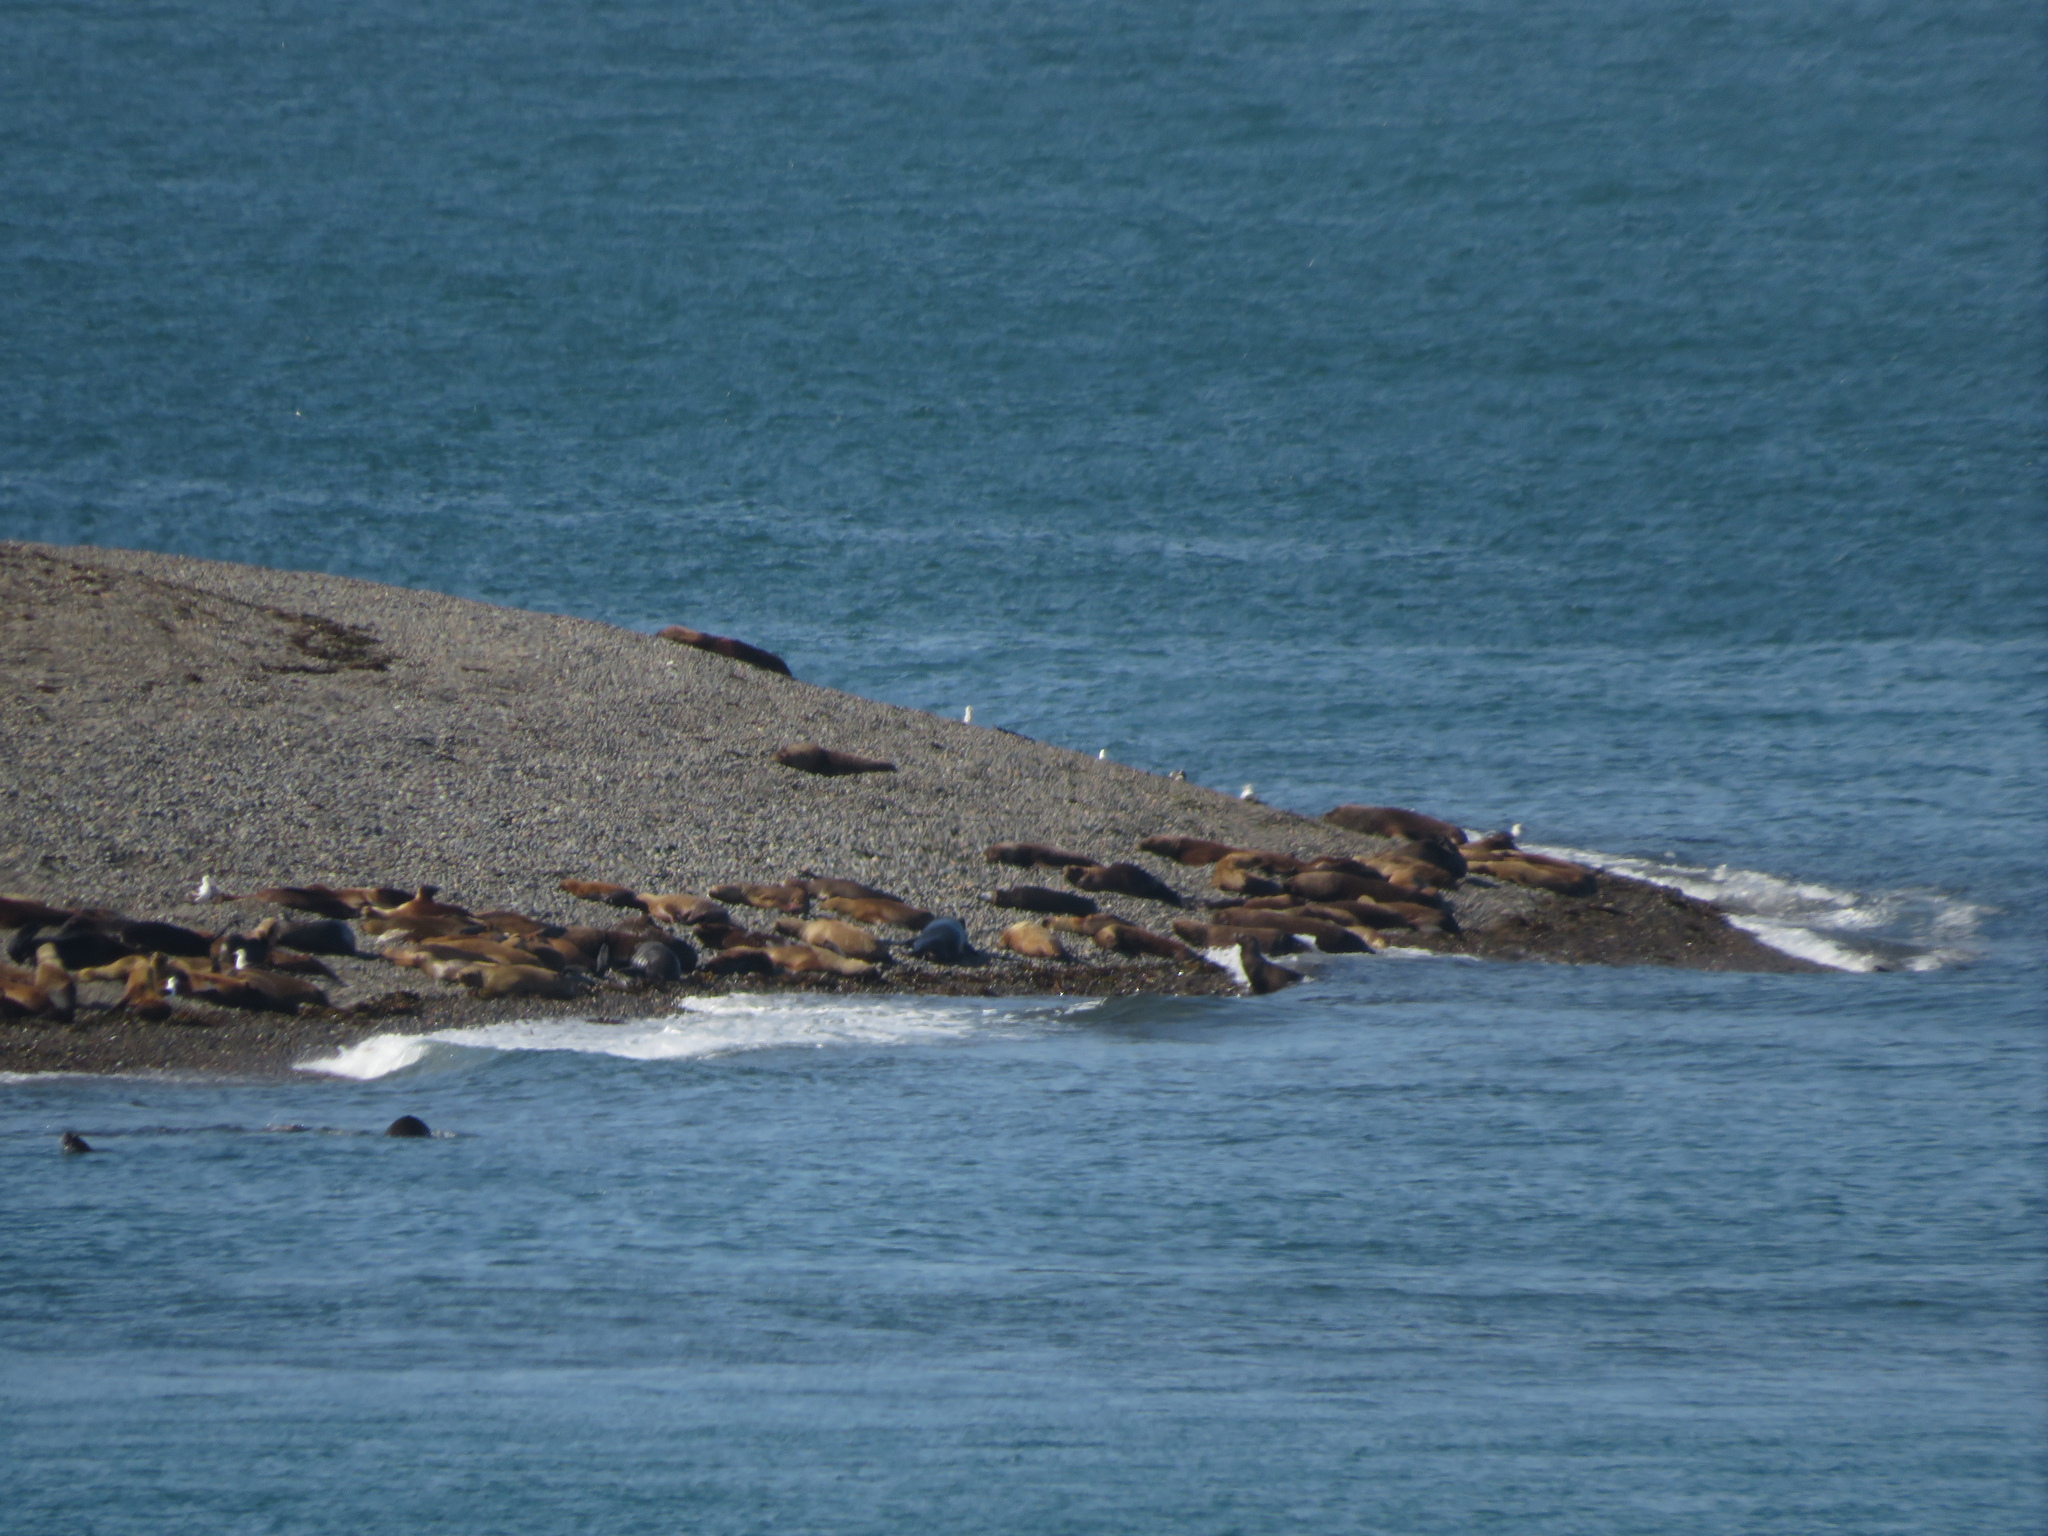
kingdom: Animalia
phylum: Chordata
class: Mammalia
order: Carnivora
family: Otariidae
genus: Otaria
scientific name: Otaria byronia
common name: South american sea lion
